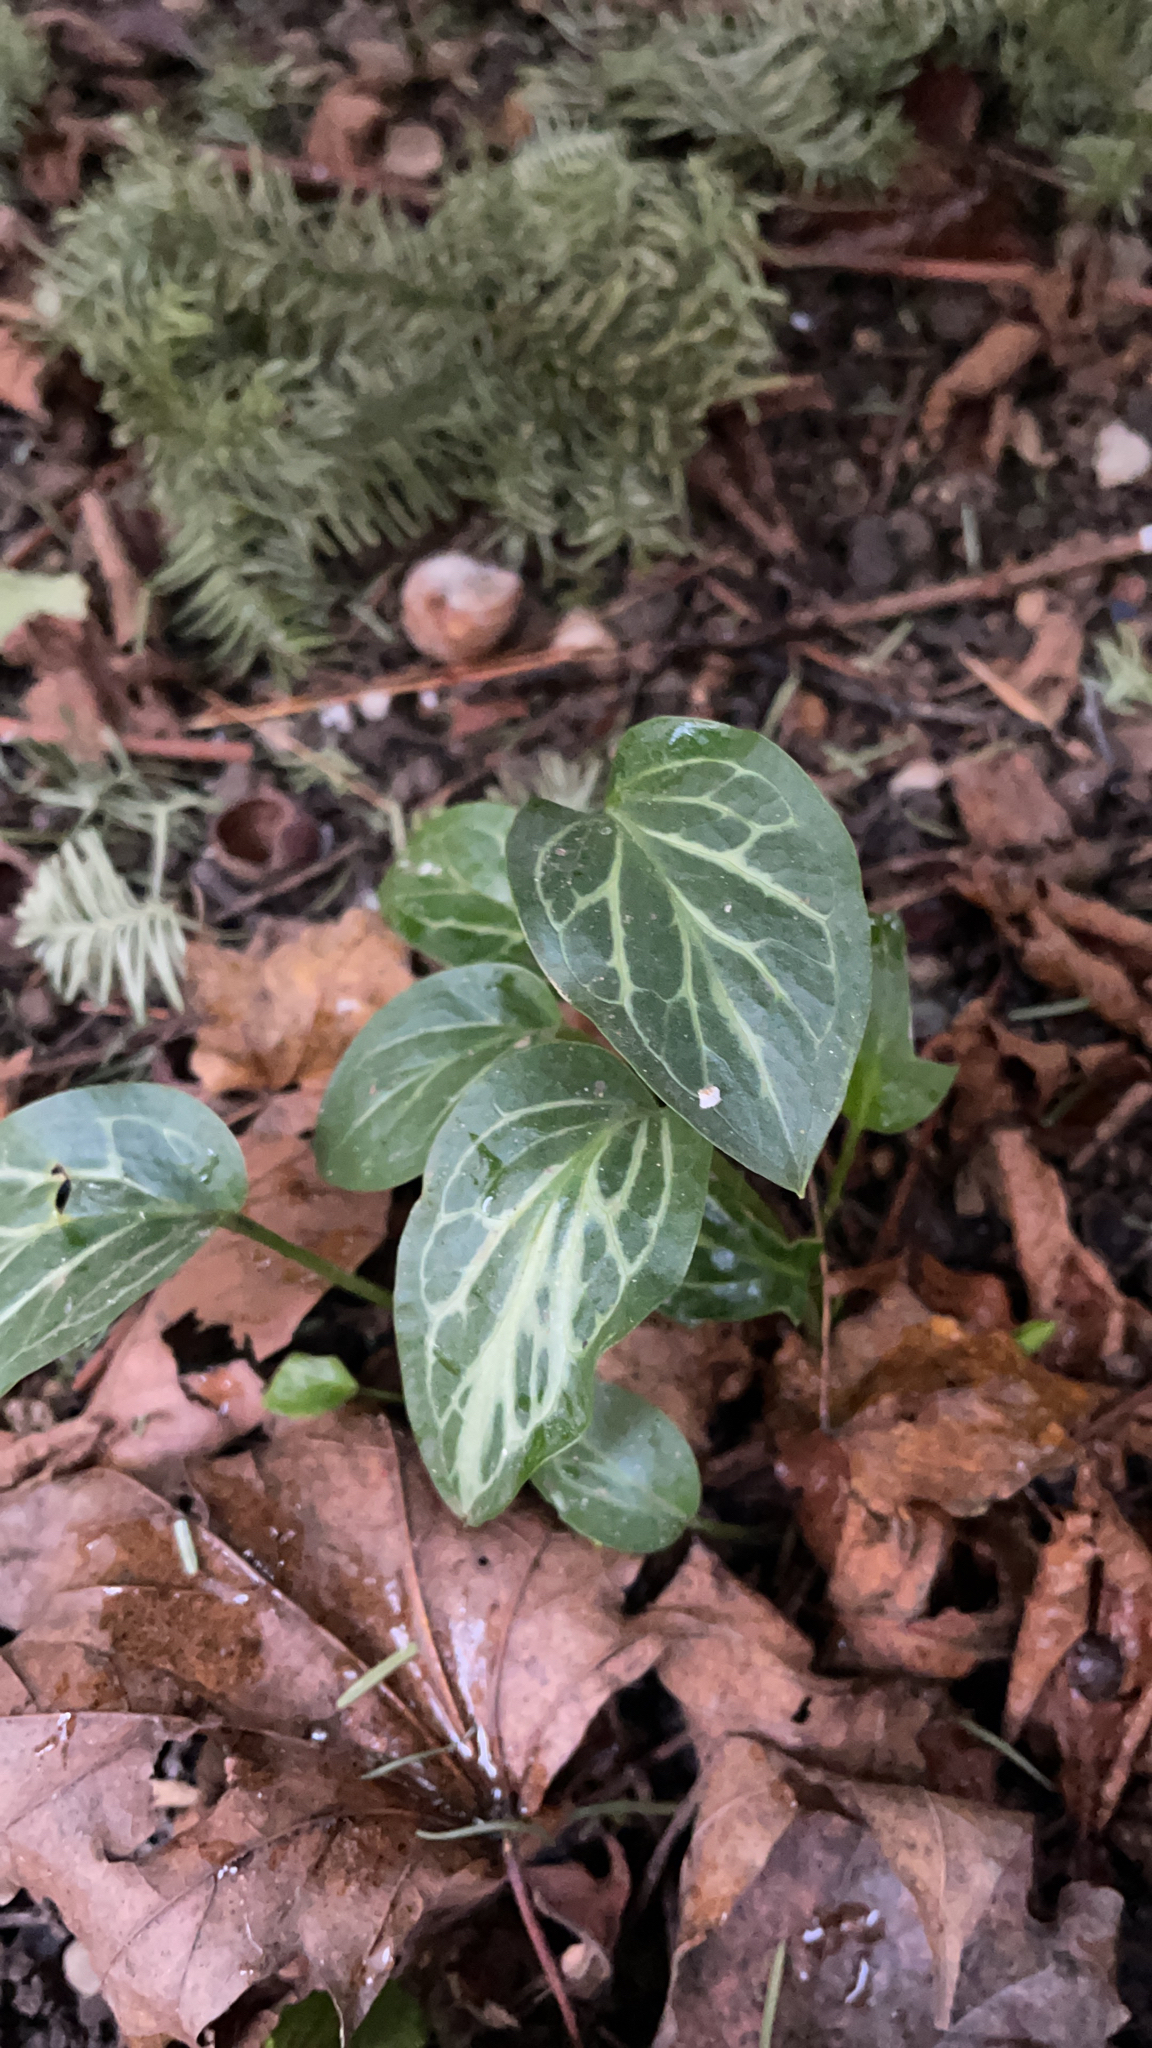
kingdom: Plantae
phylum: Tracheophyta
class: Liliopsida
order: Alismatales
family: Araceae
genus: Arum
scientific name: Arum italicum
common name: Italian lords-and-ladies
